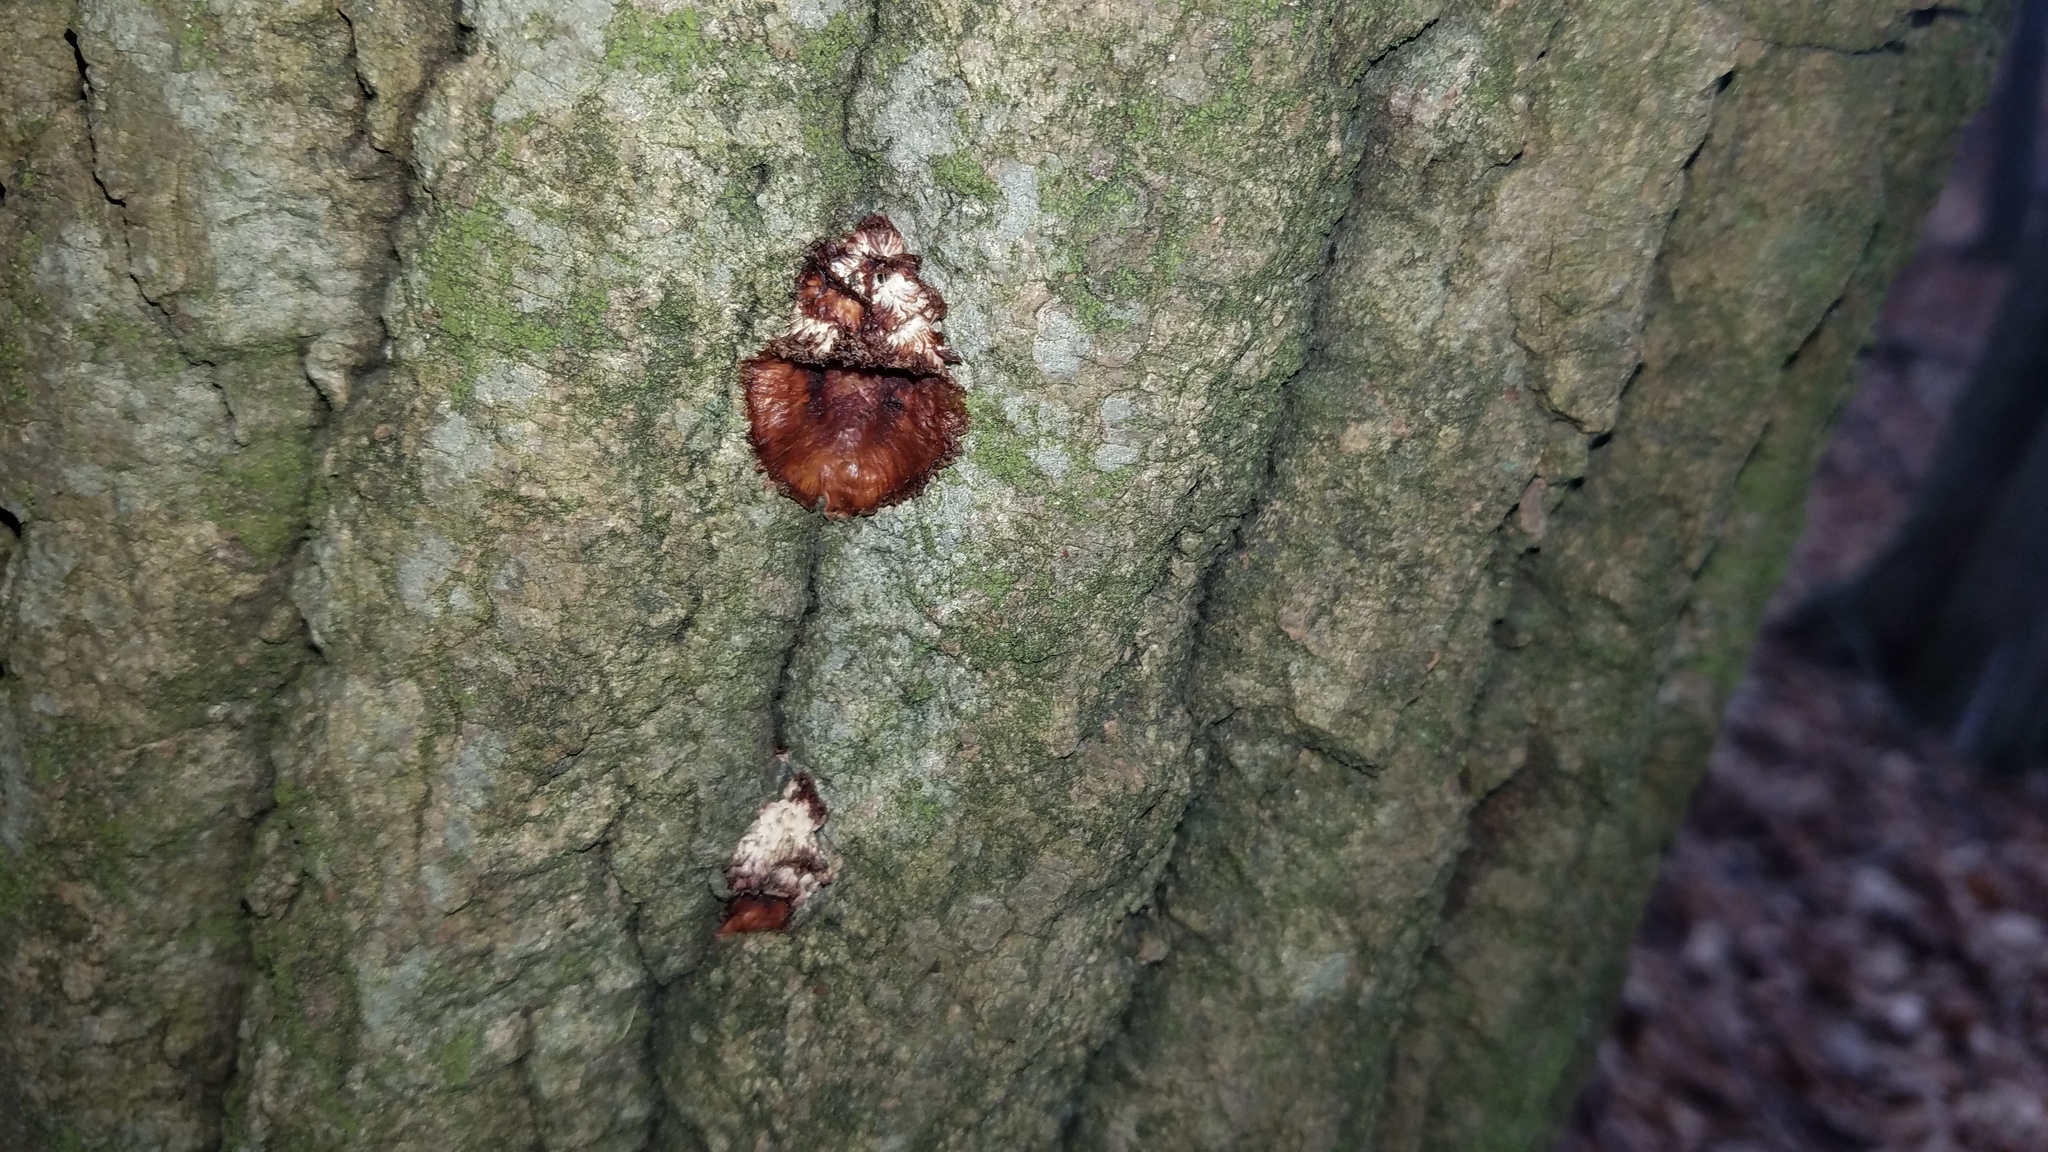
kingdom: Fungi
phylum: Basidiomycota
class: Agaricomycetes
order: Polyporales
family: Meruliaceae
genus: Phlebia
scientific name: Phlebia tremellosa
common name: Jelly rot
